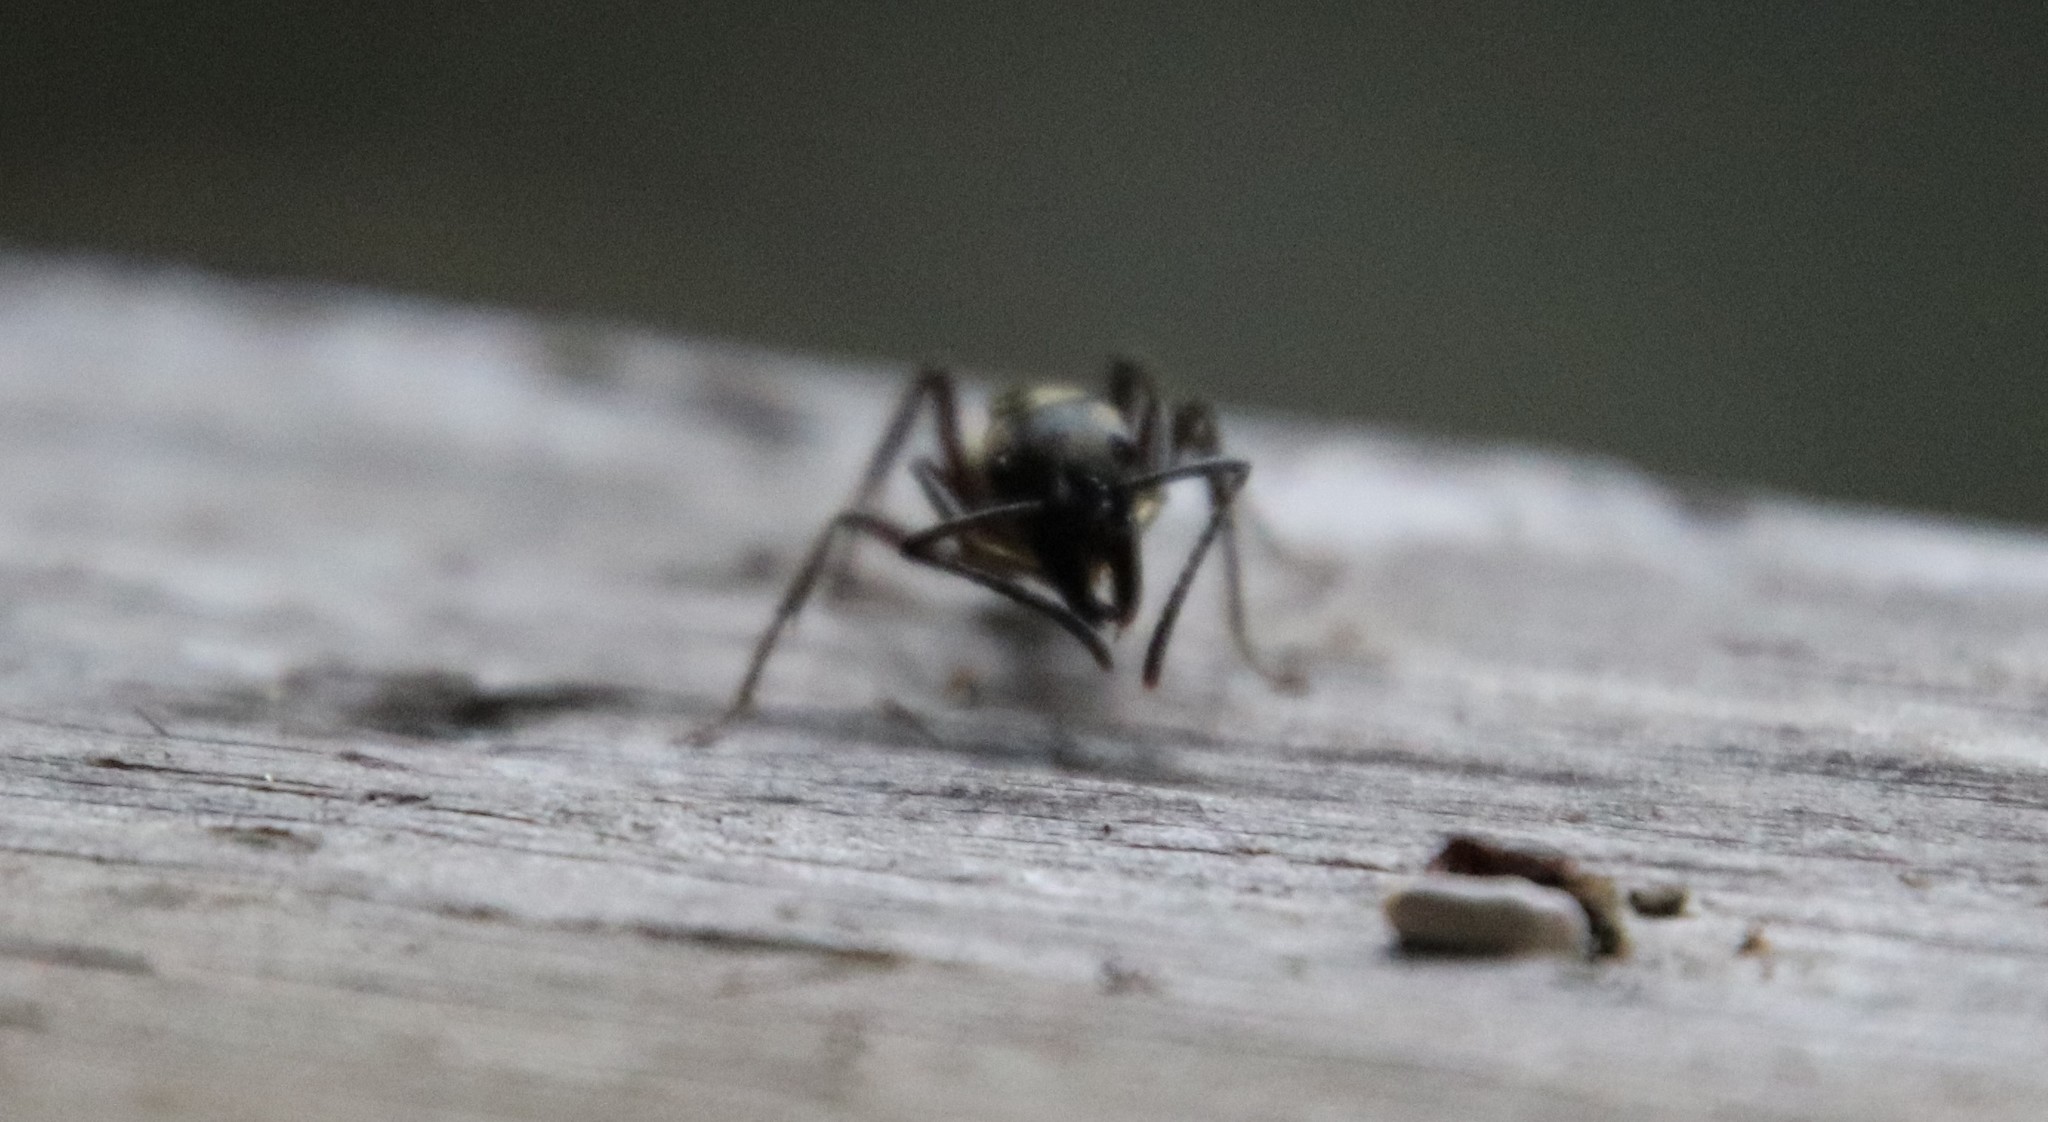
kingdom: Animalia
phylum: Arthropoda
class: Insecta
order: Hymenoptera
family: Formicidae
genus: Pachycondyla
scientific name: Pachycondyla villosa
